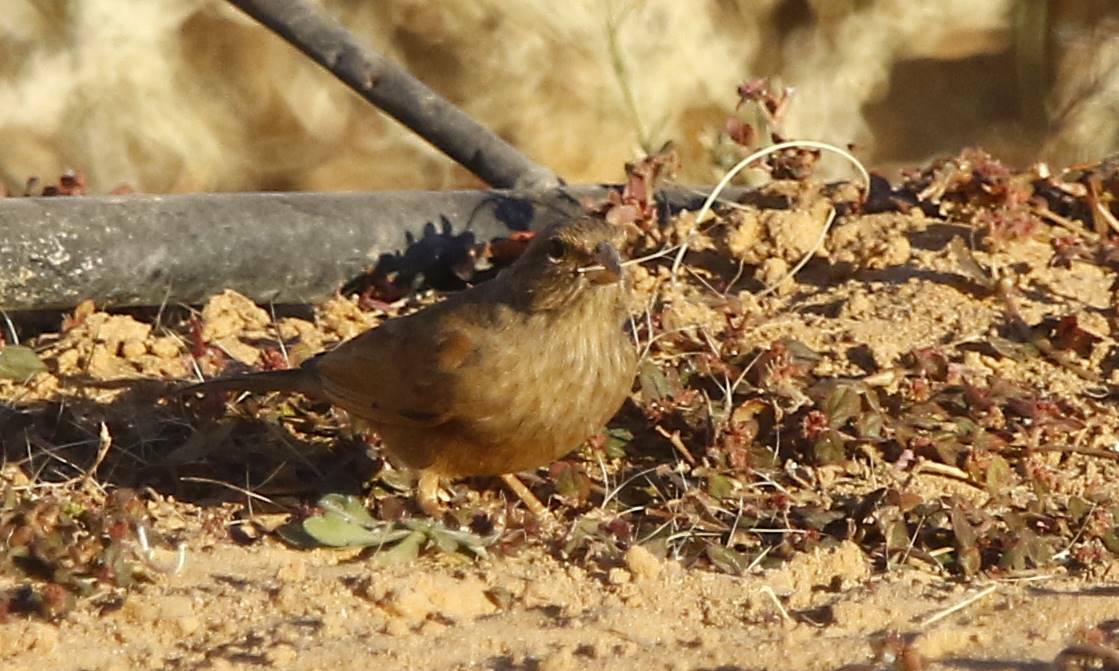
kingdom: Animalia
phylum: Chordata
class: Aves
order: Passeriformes
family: Emberizidae
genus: Emberiza
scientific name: Emberiza sahari
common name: House bunting
